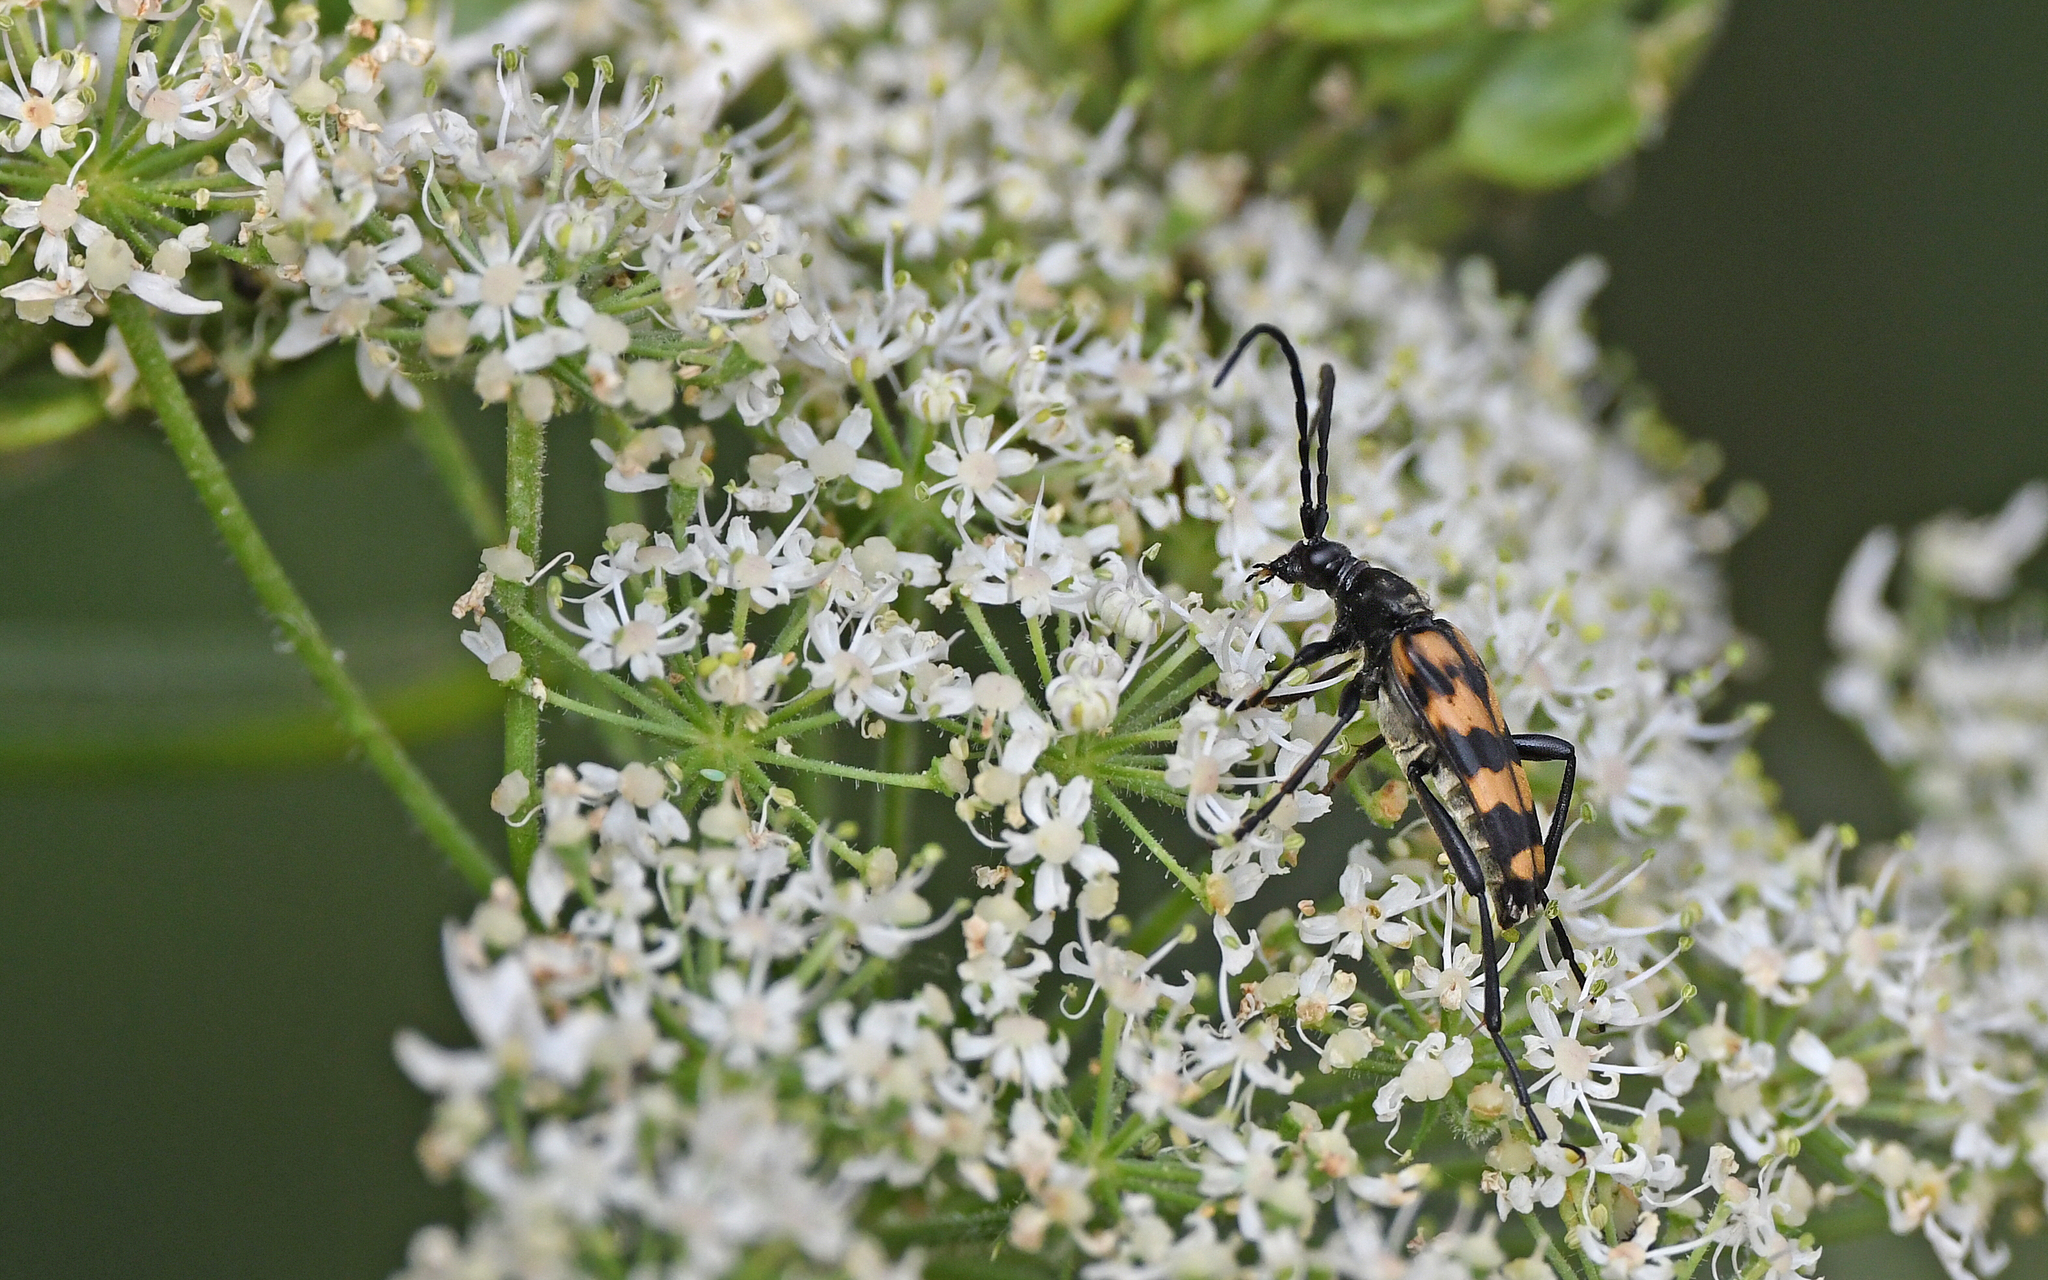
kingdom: Animalia
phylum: Arthropoda
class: Insecta
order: Coleoptera
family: Cerambycidae
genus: Leptura
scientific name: Leptura quadrifasciata
